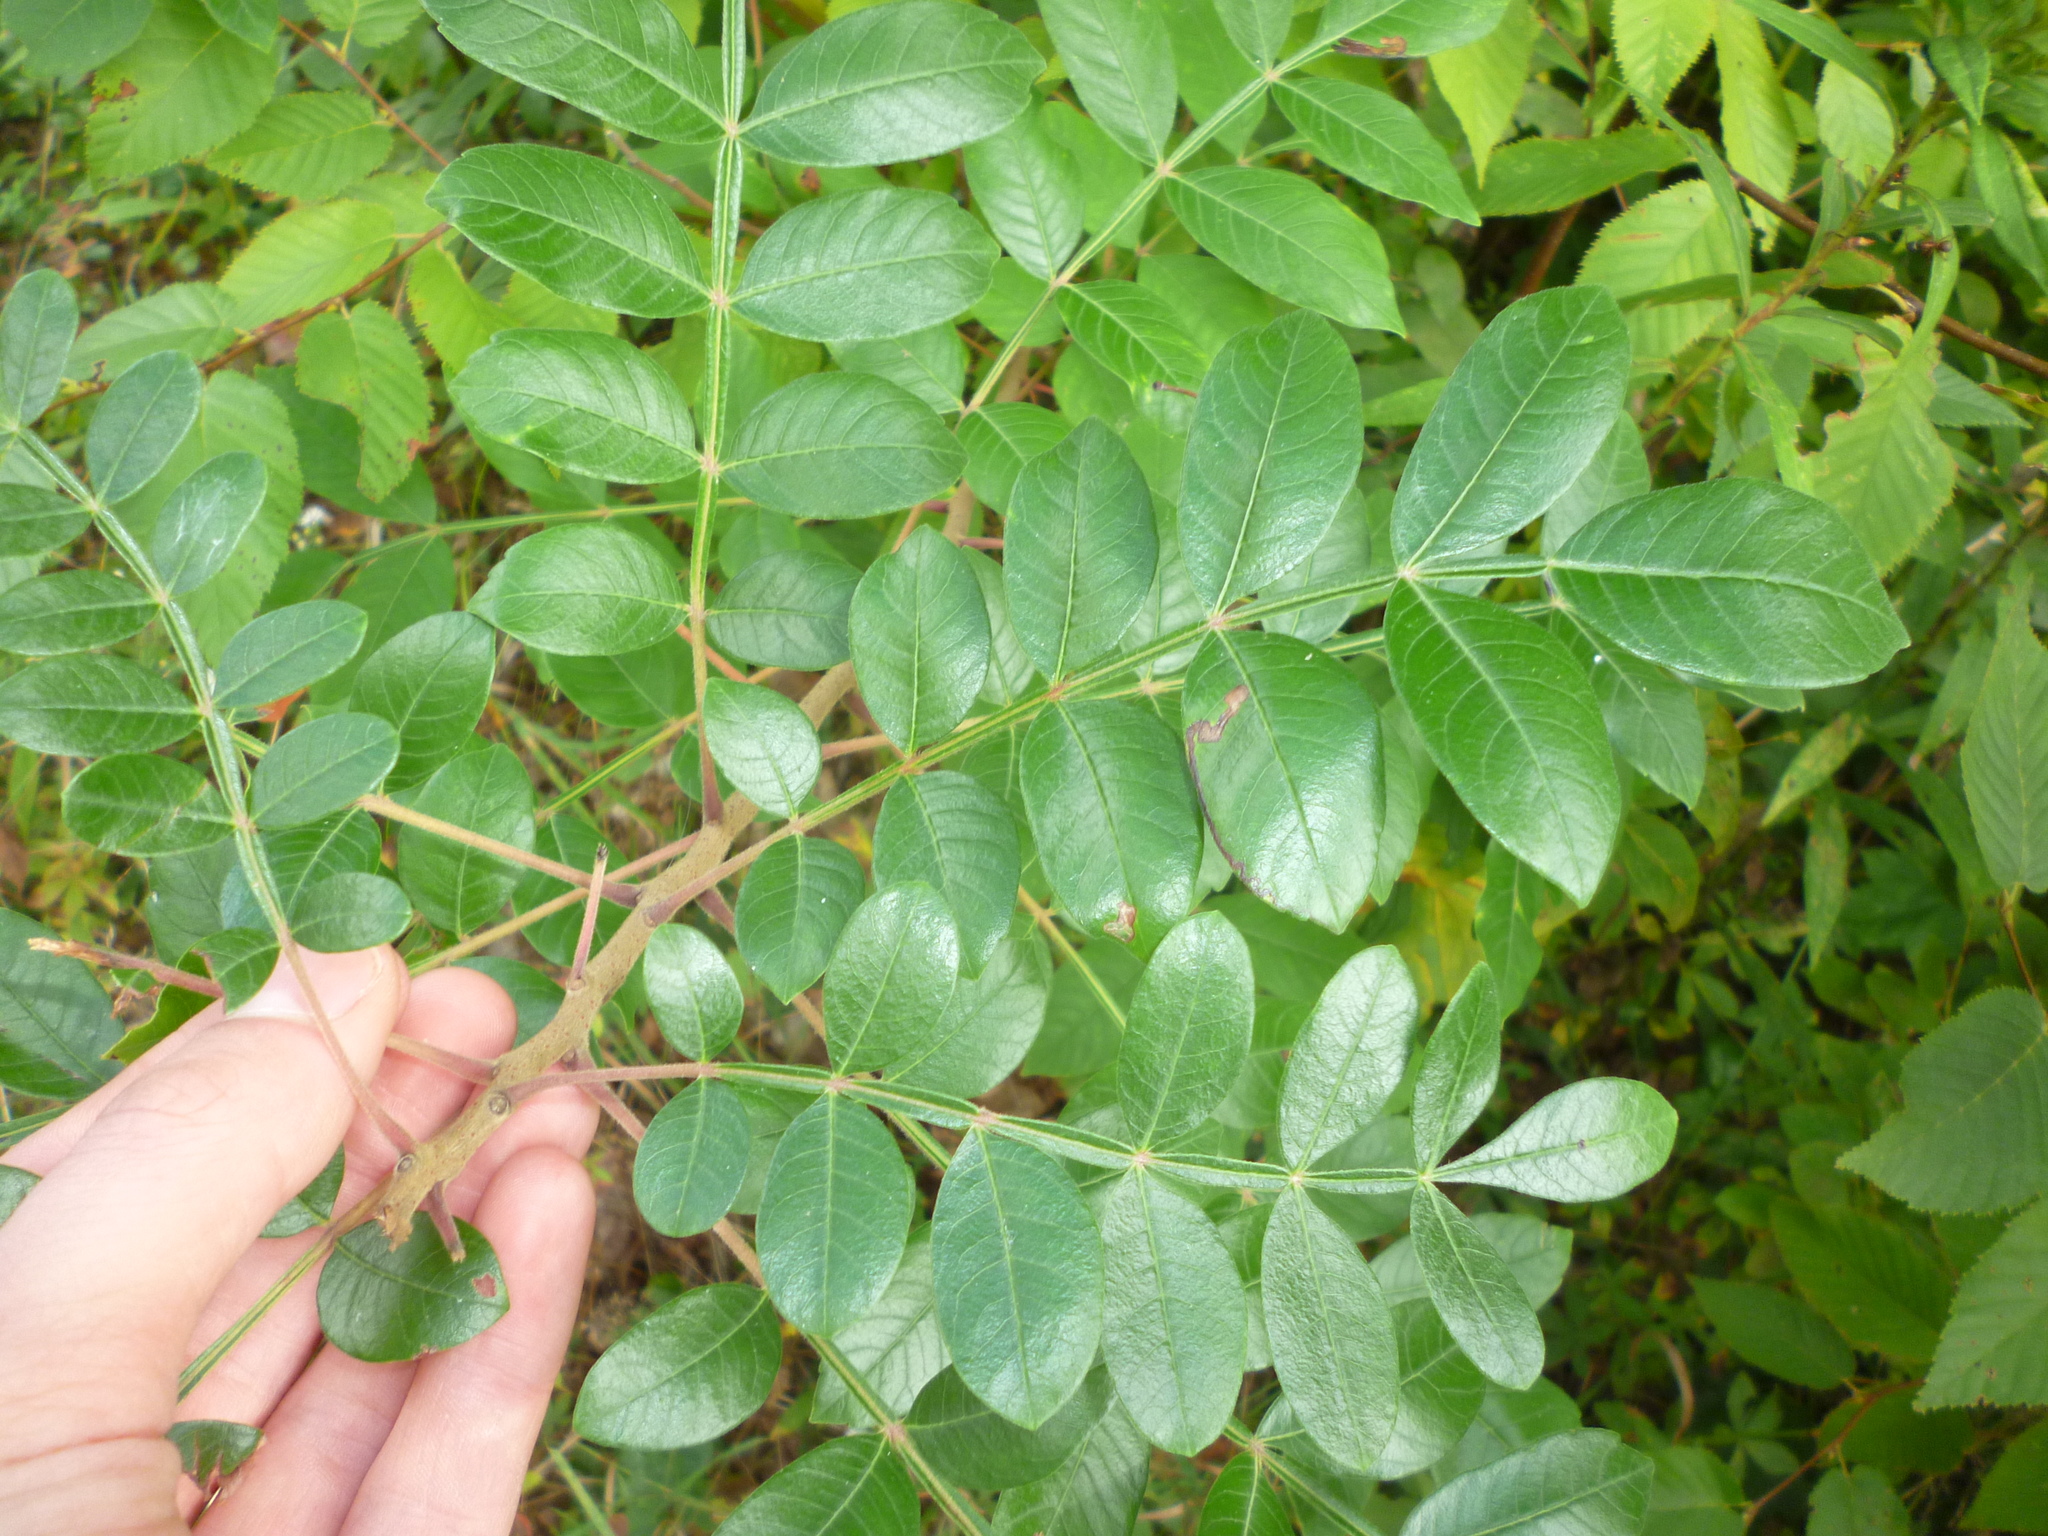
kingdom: Plantae
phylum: Tracheophyta
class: Magnoliopsida
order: Sapindales
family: Anacardiaceae
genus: Rhus
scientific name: Rhus copallina
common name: Shining sumac
